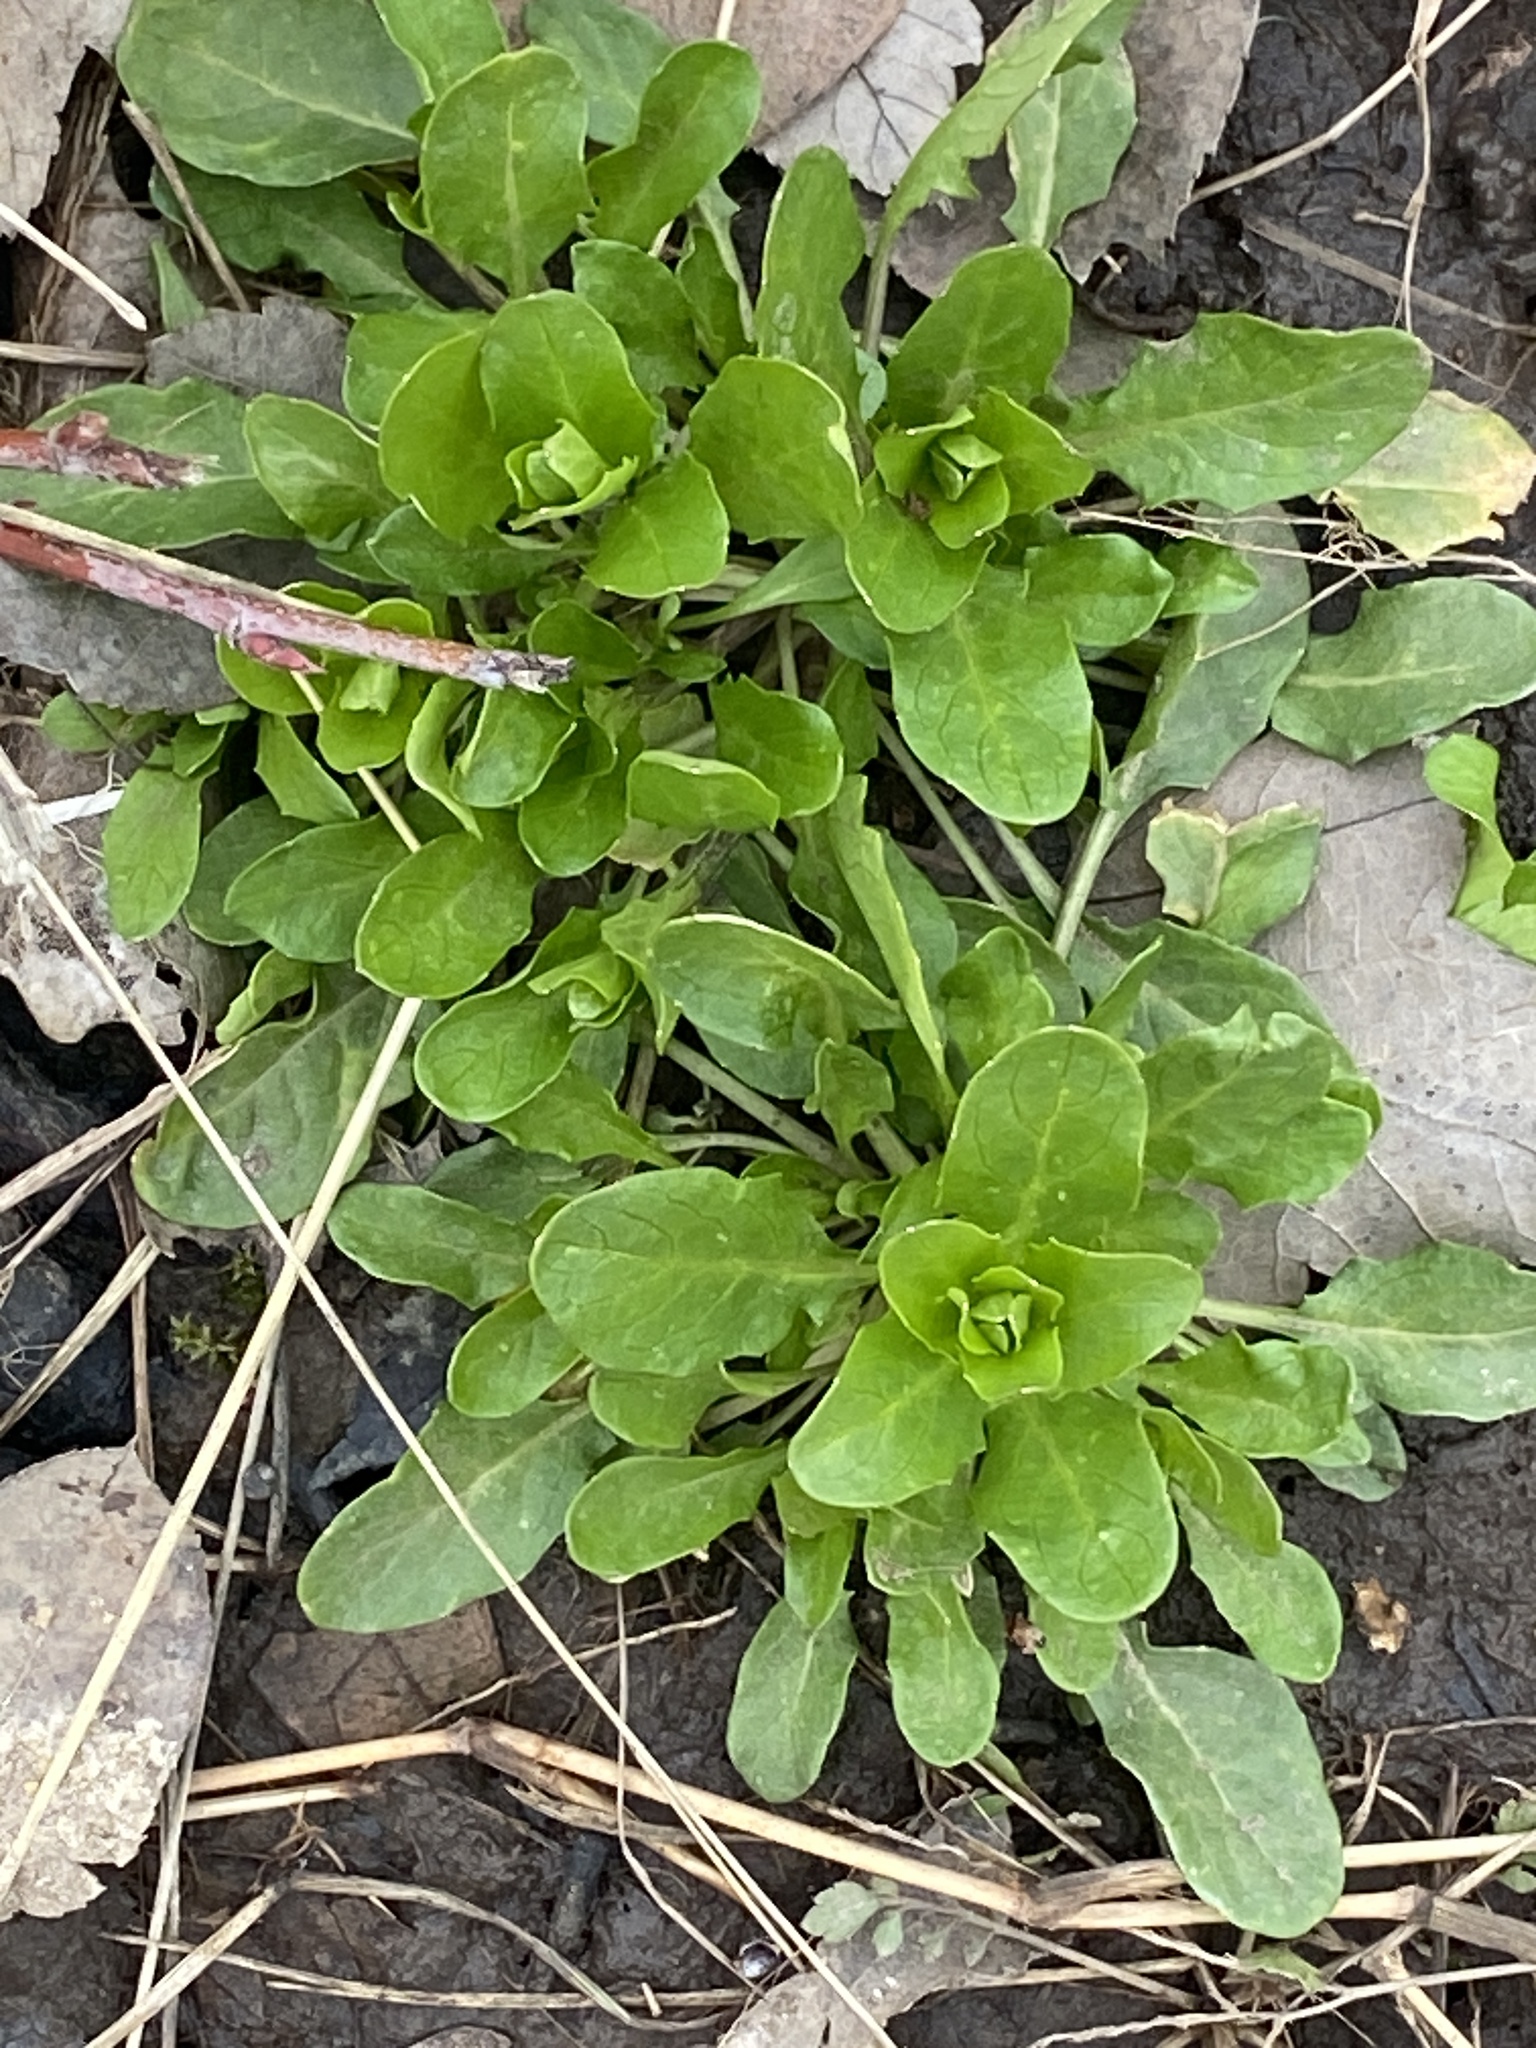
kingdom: Plantae
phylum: Tracheophyta
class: Magnoliopsida
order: Brassicales
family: Brassicaceae
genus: Thlaspi
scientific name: Thlaspi arvense
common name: Field pennycress
